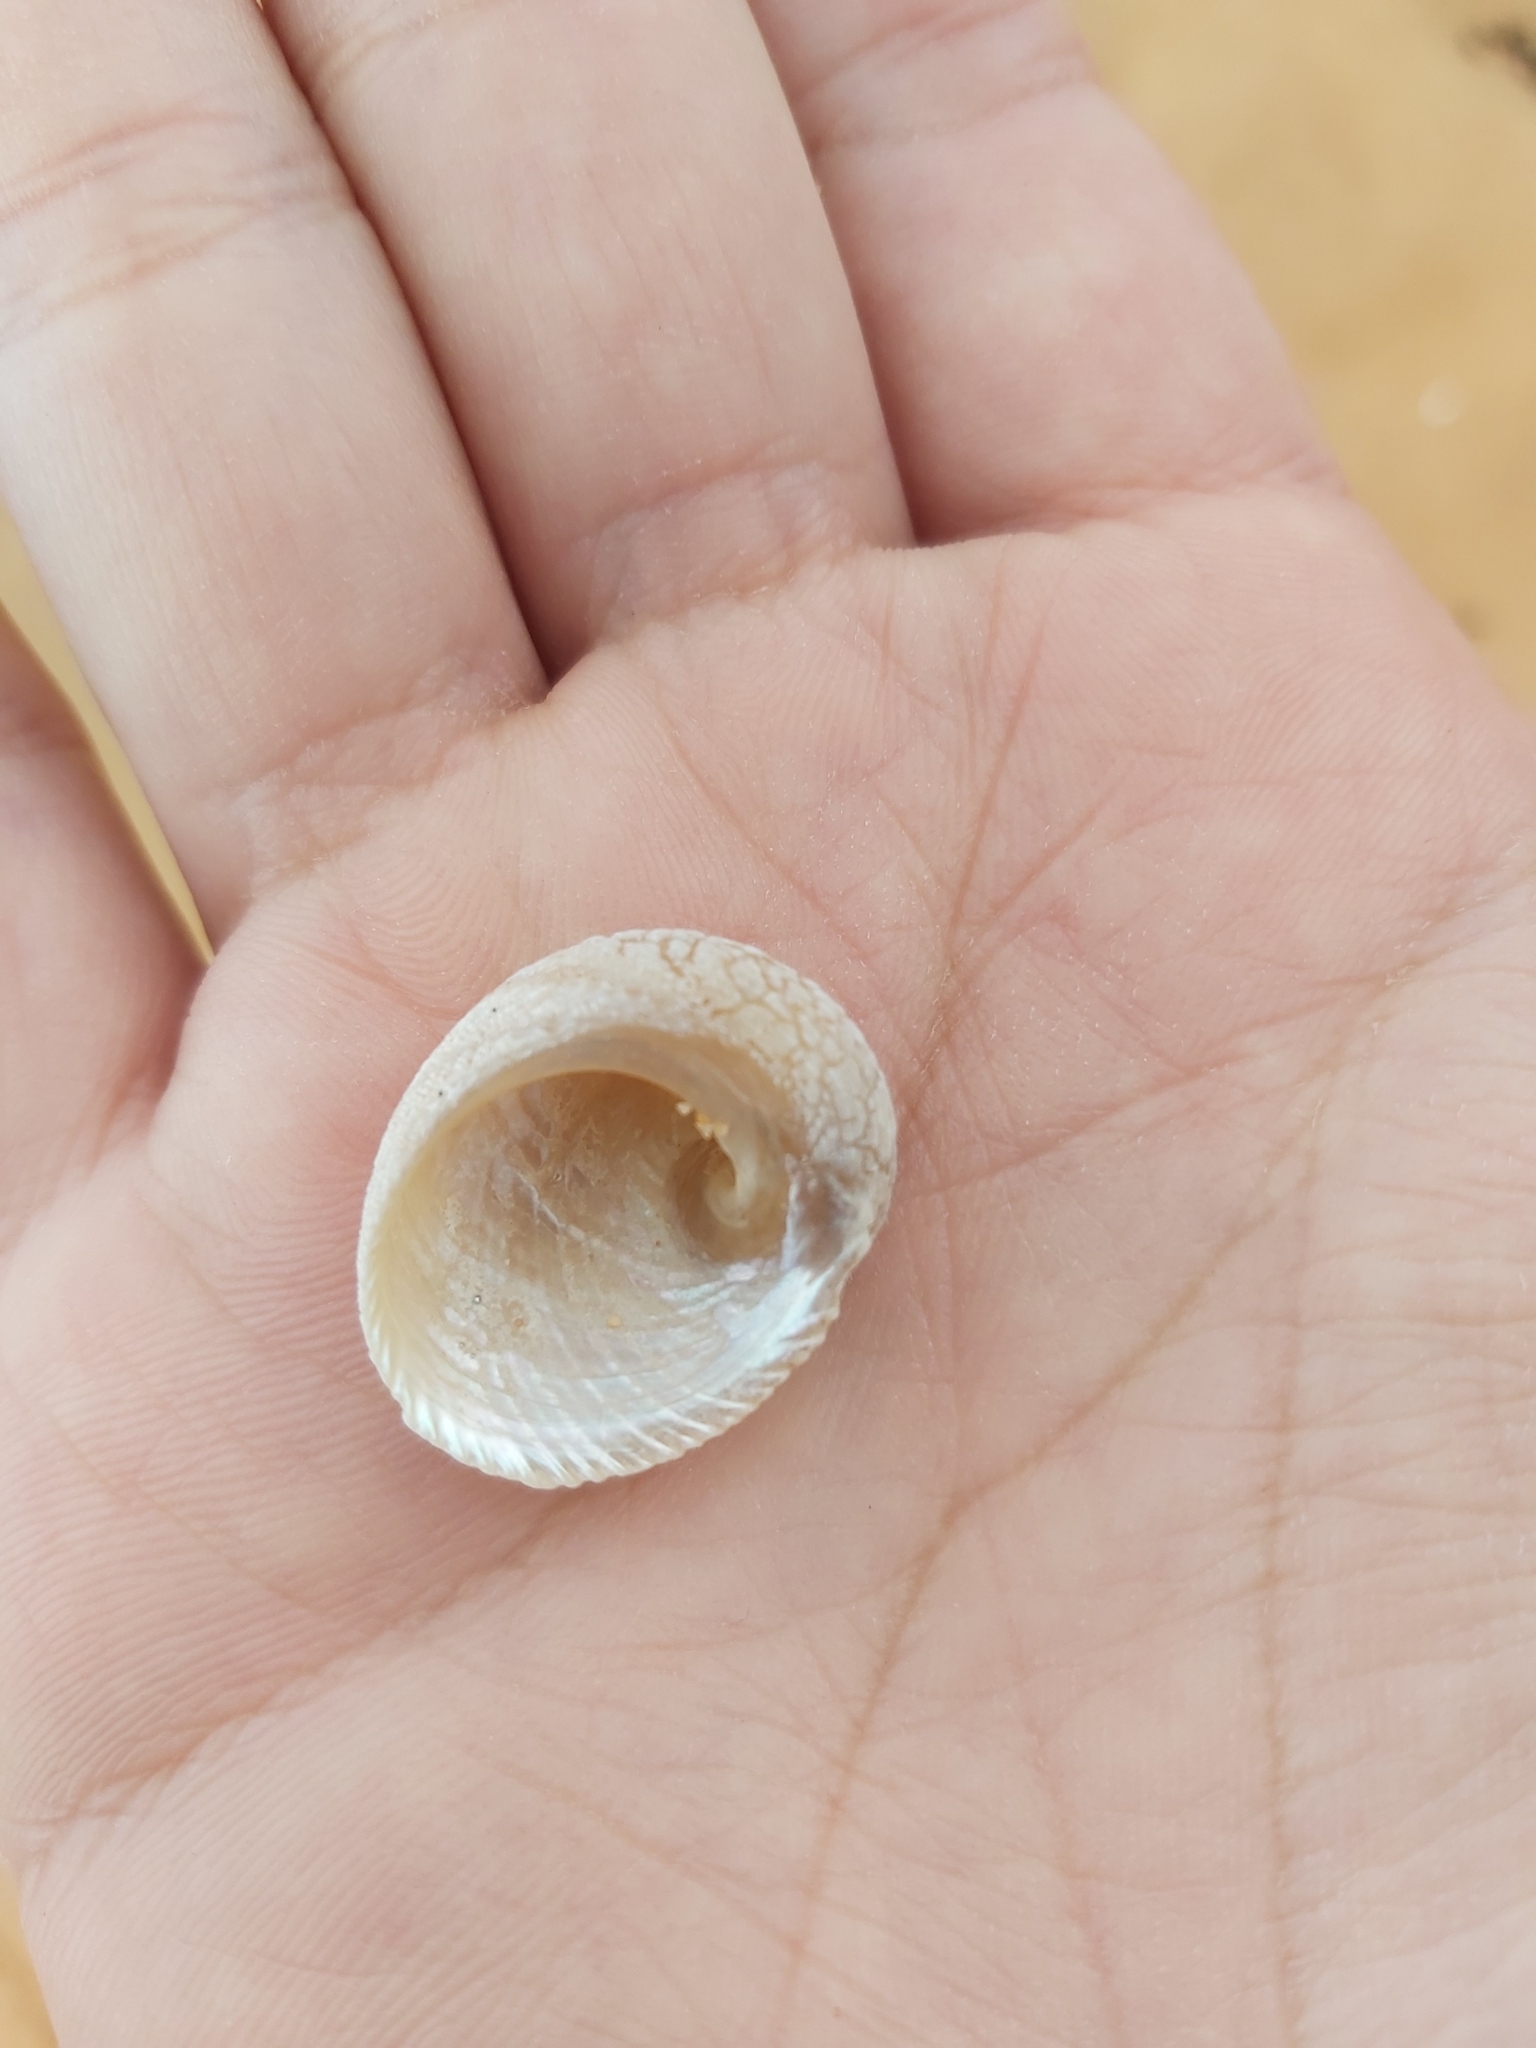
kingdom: Animalia
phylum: Mollusca
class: Gastropoda
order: Seguenziida
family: Chilodontaidae
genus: Granata
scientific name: Granata imbricata
